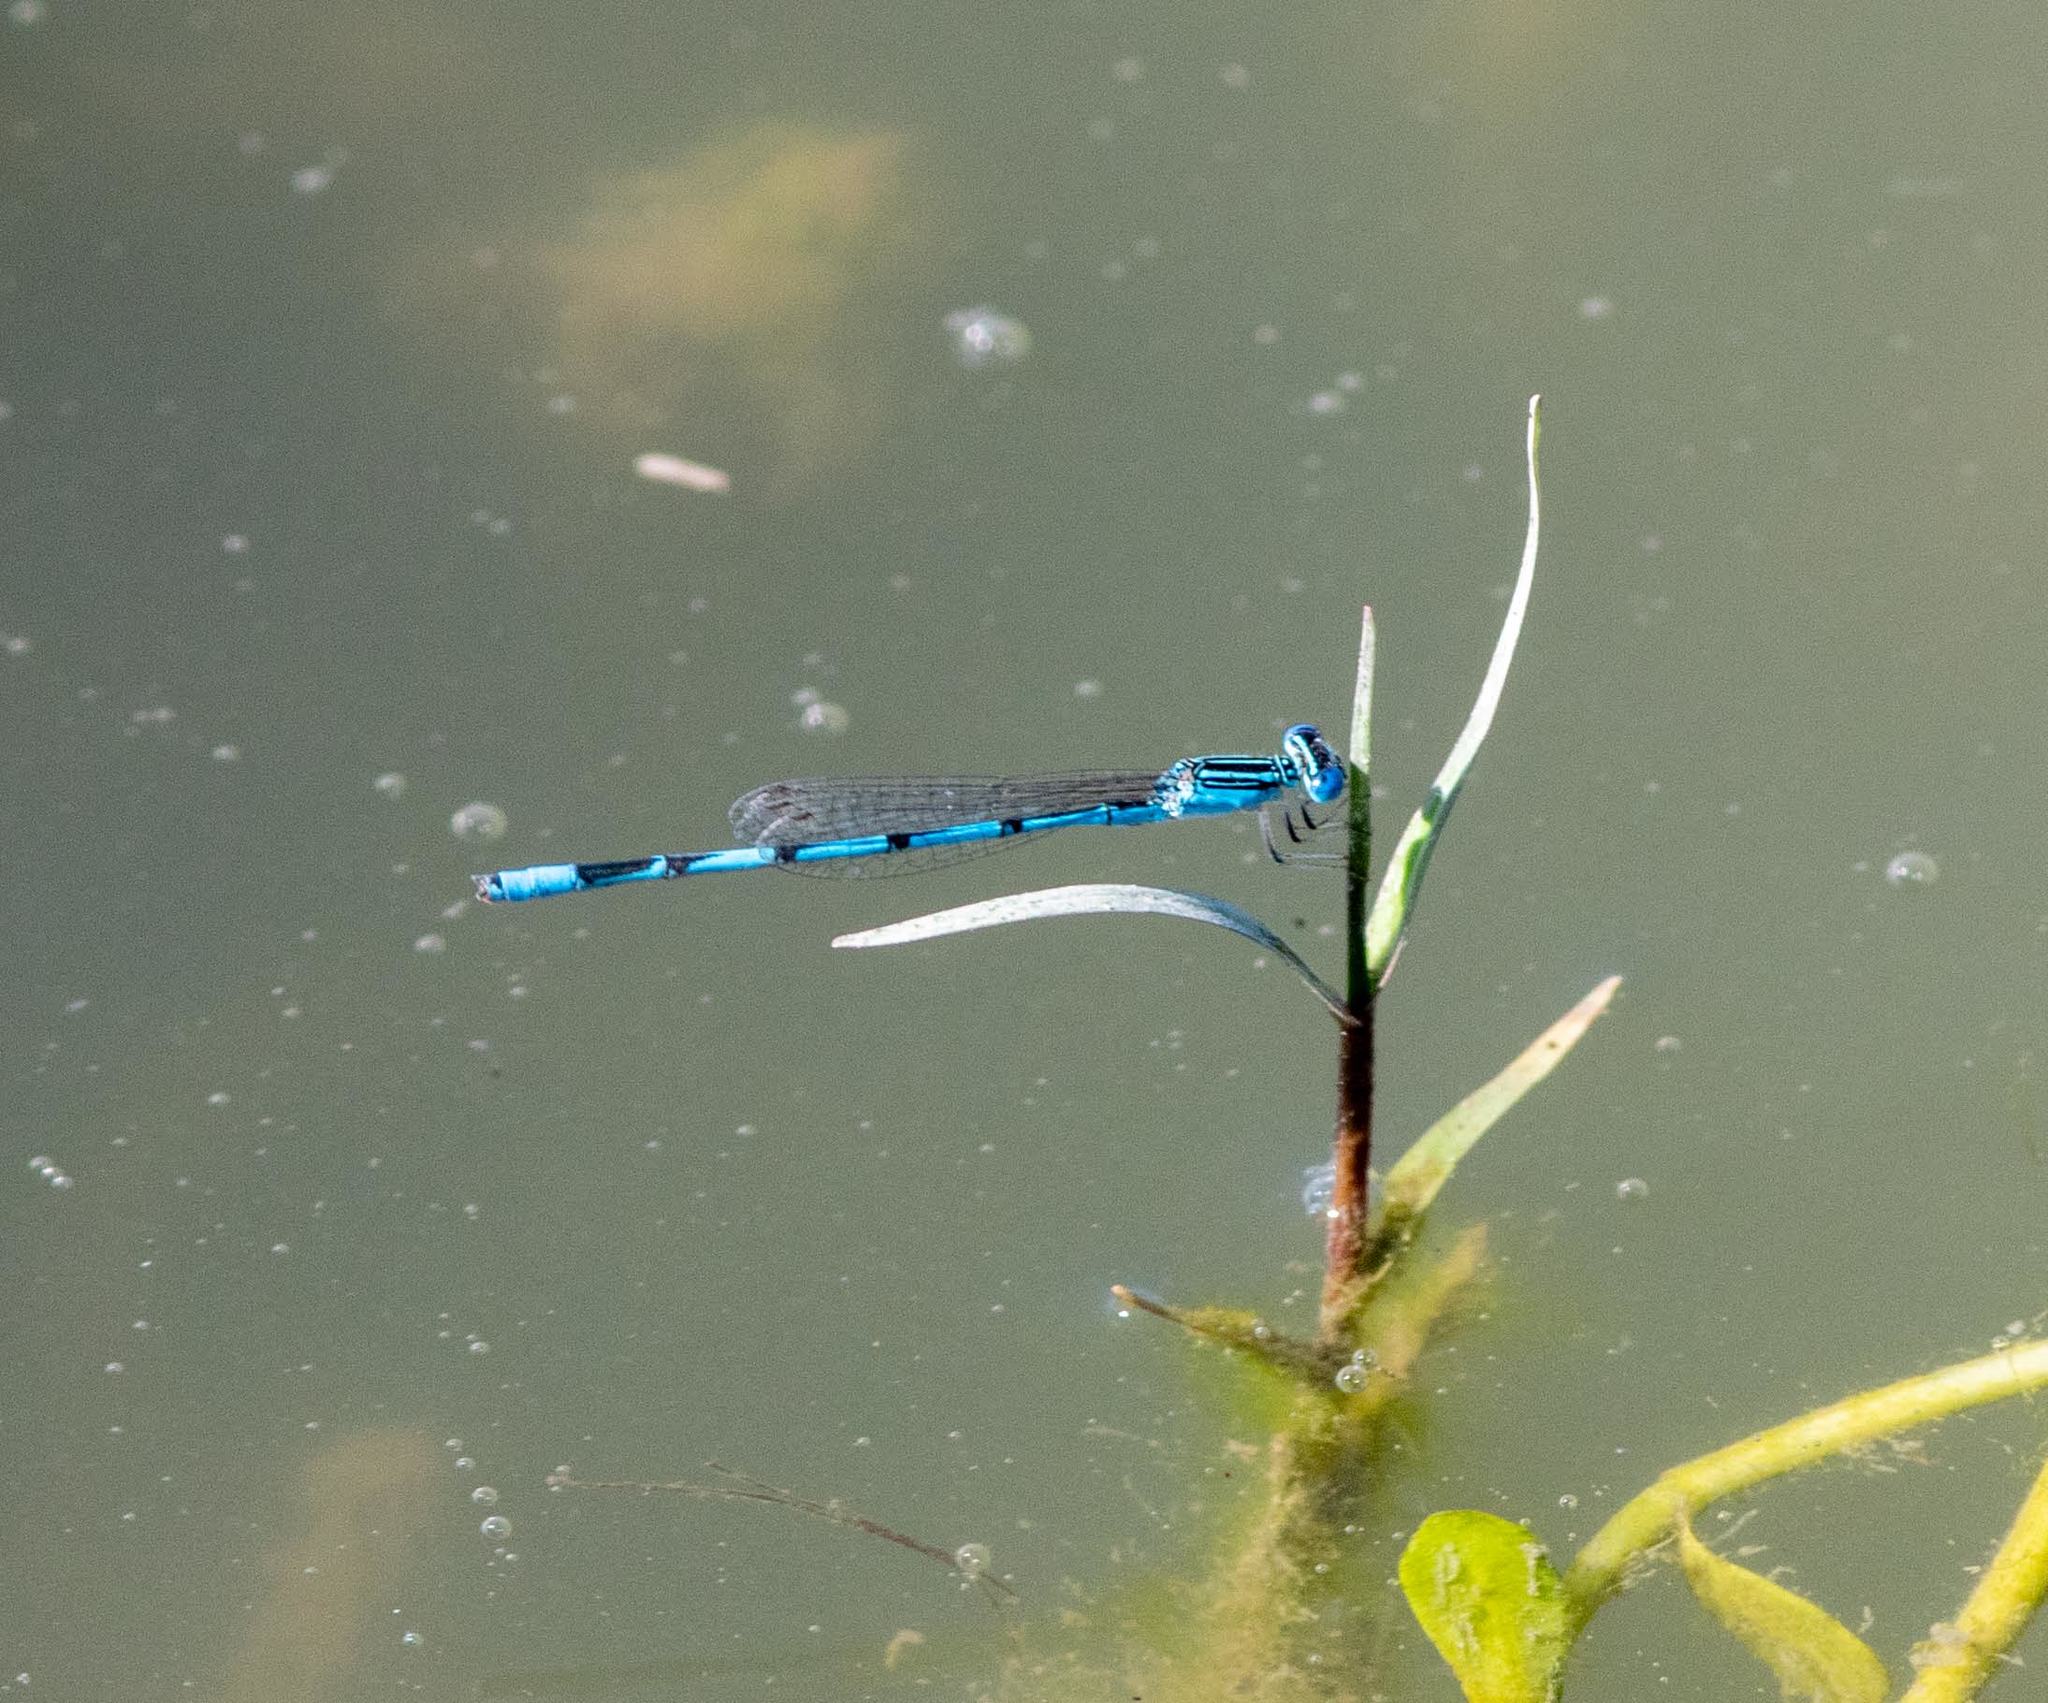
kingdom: Animalia
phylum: Arthropoda
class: Insecta
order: Odonata
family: Coenagrionidae
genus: Enallagma
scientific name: Enallagma basidens
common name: Double-striped bluet
